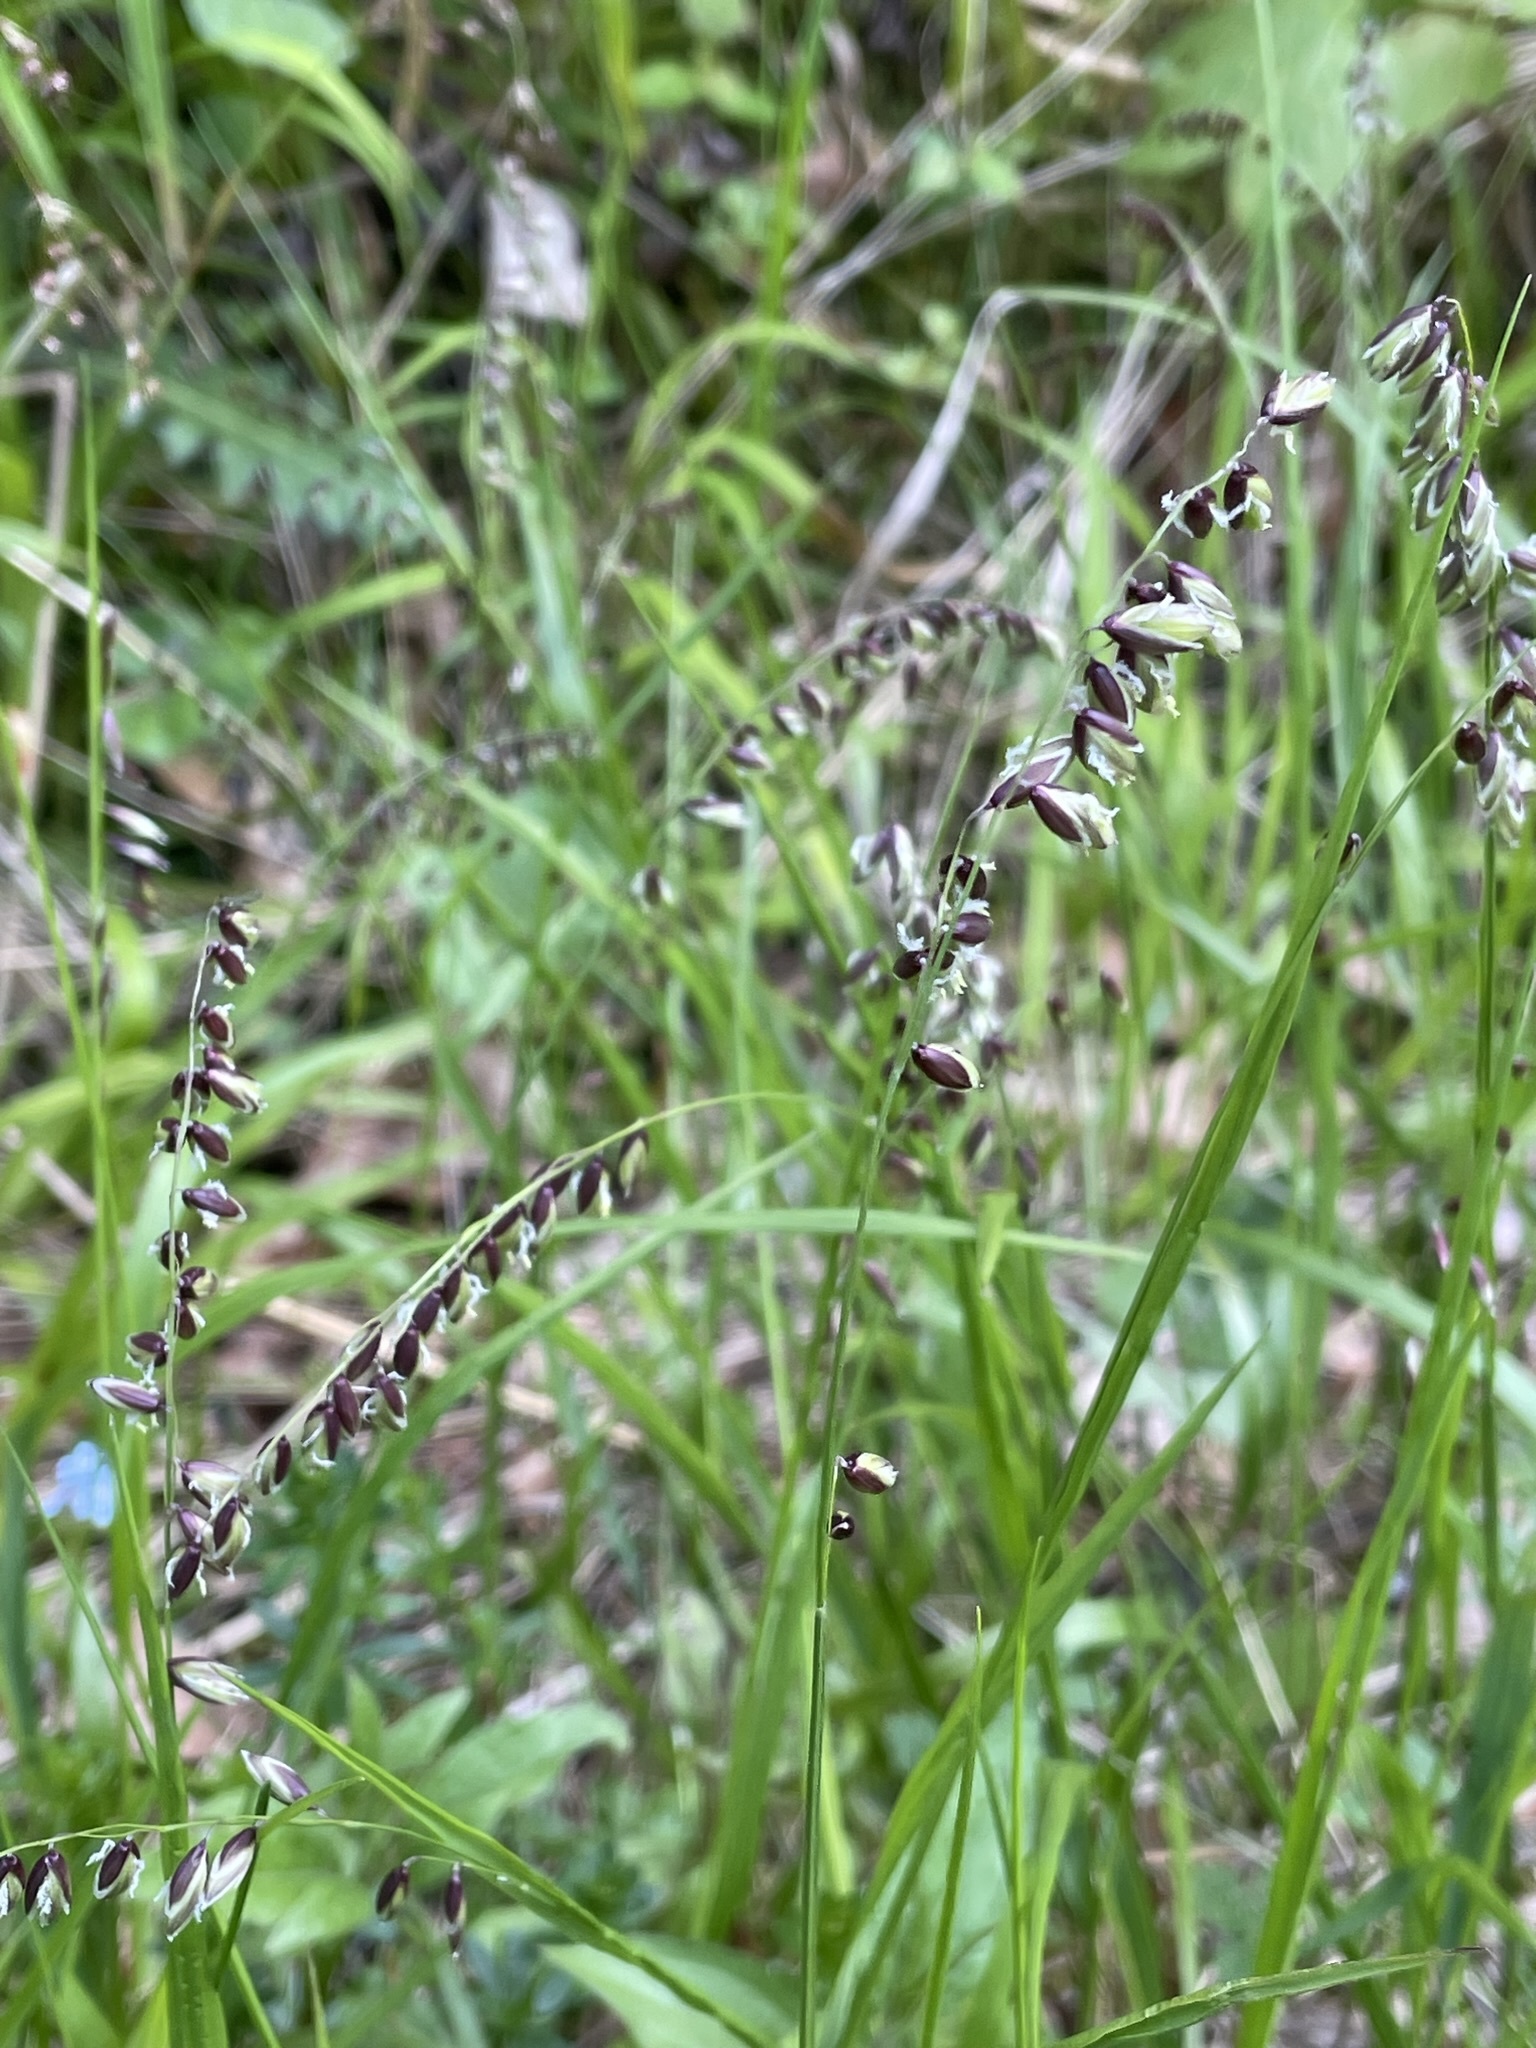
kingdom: Plantae
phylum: Tracheophyta
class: Liliopsida
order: Poales
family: Poaceae
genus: Melica
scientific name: Melica nutans
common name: Mountain melick
